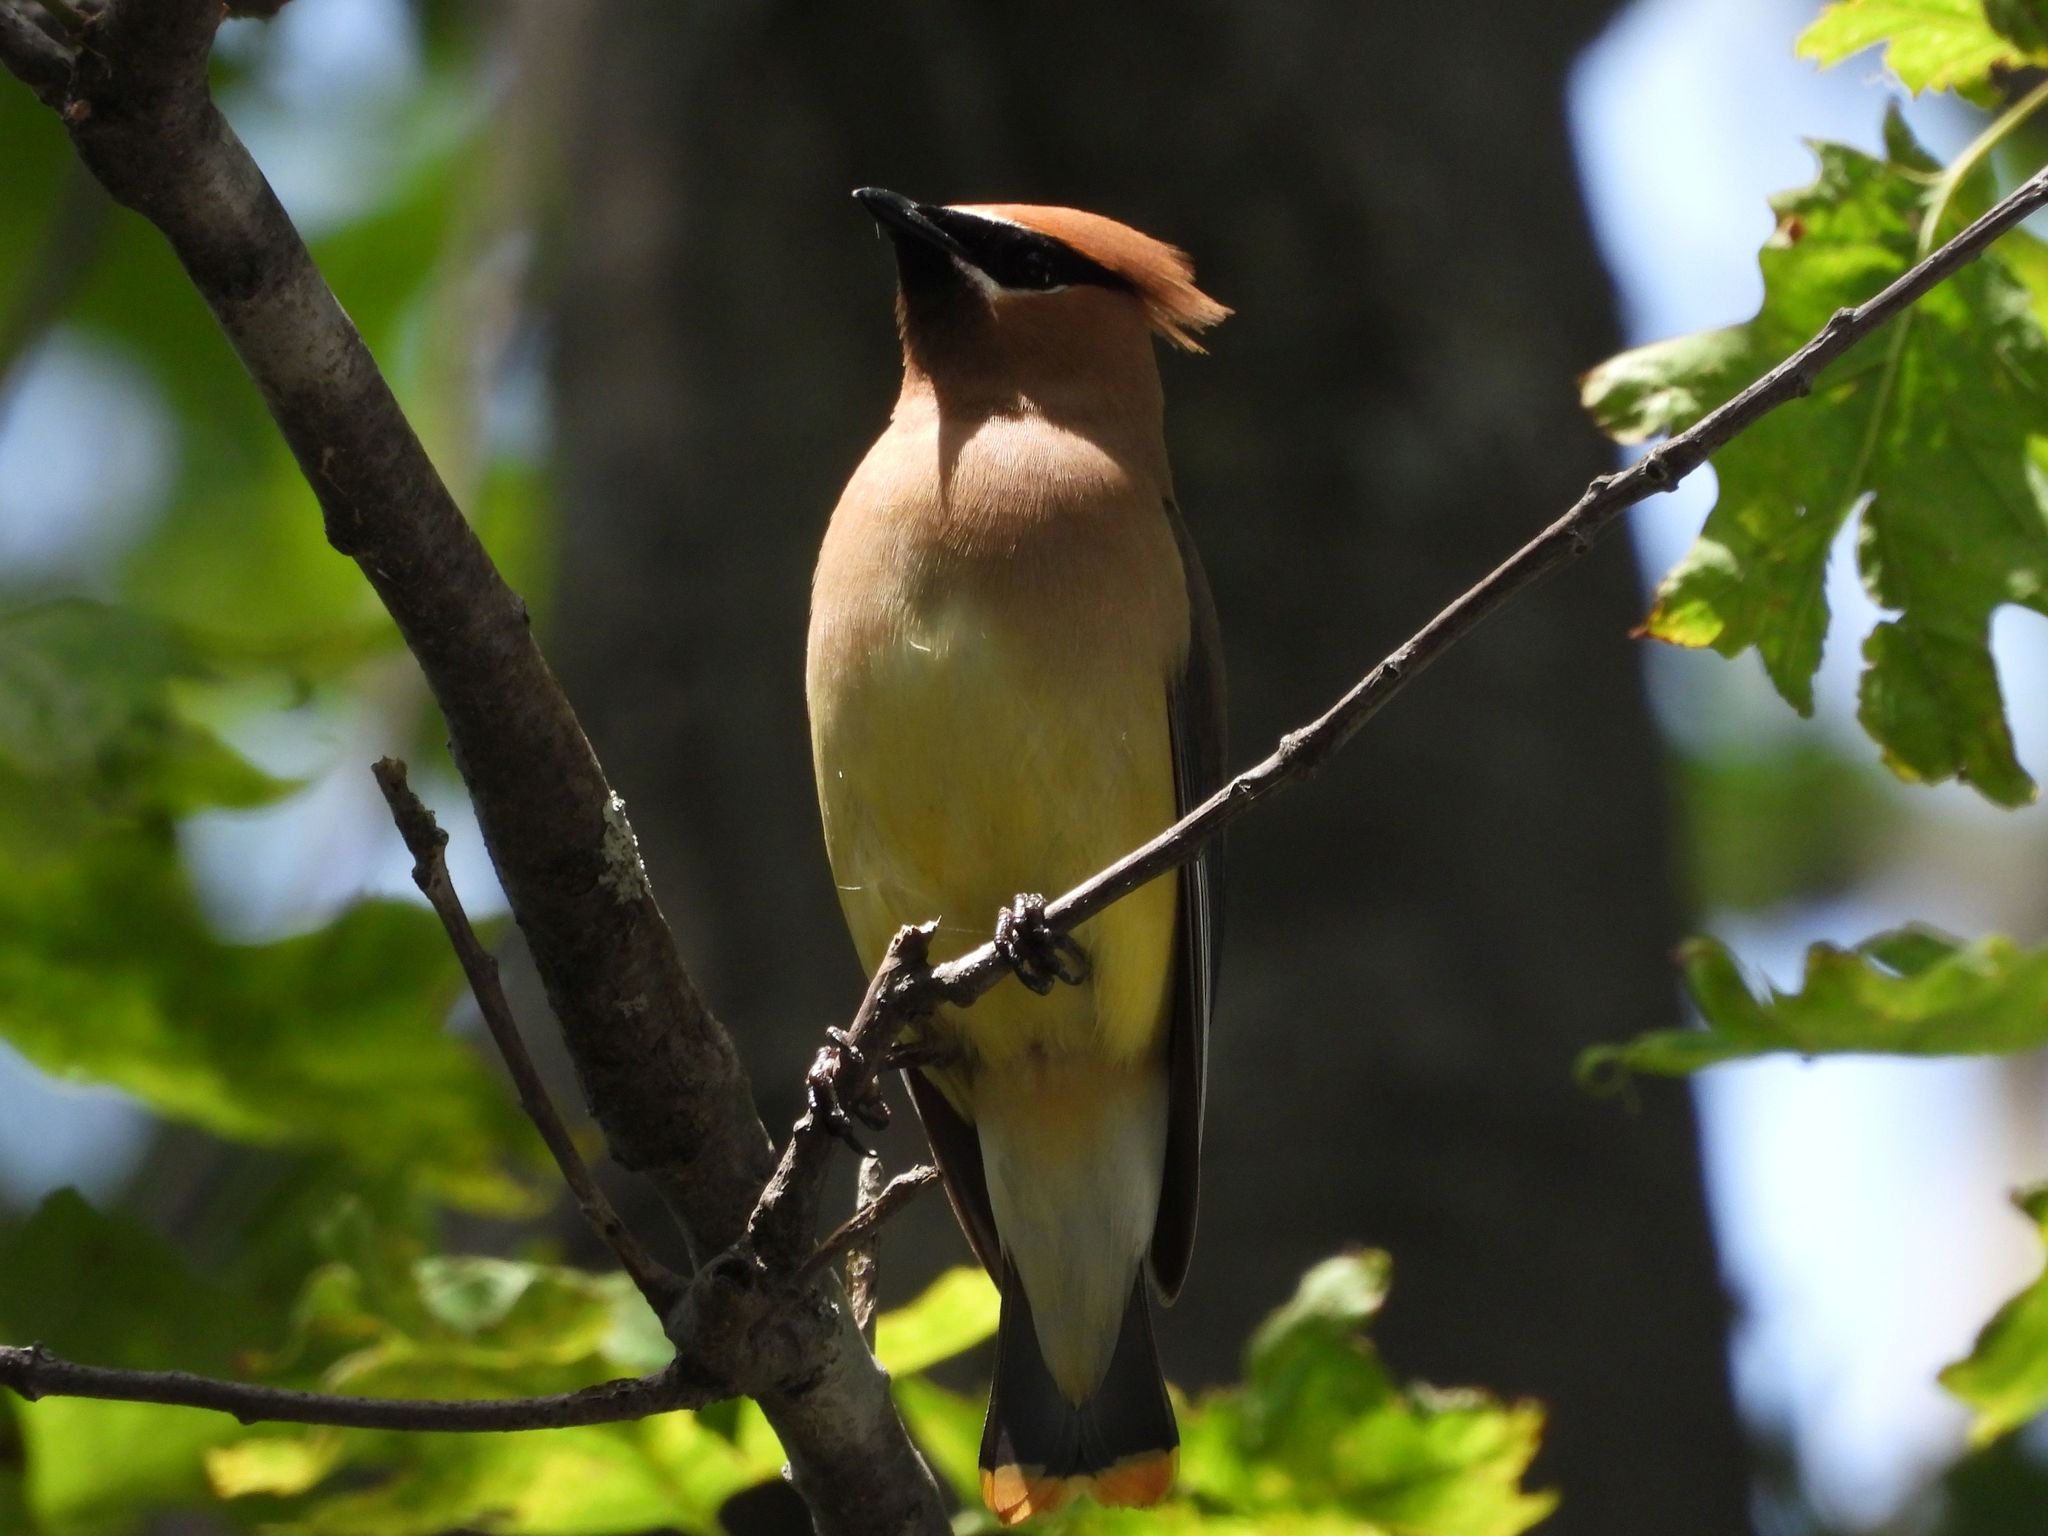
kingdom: Animalia
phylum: Chordata
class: Aves
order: Passeriformes
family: Bombycillidae
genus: Bombycilla
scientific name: Bombycilla cedrorum
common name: Cedar waxwing
